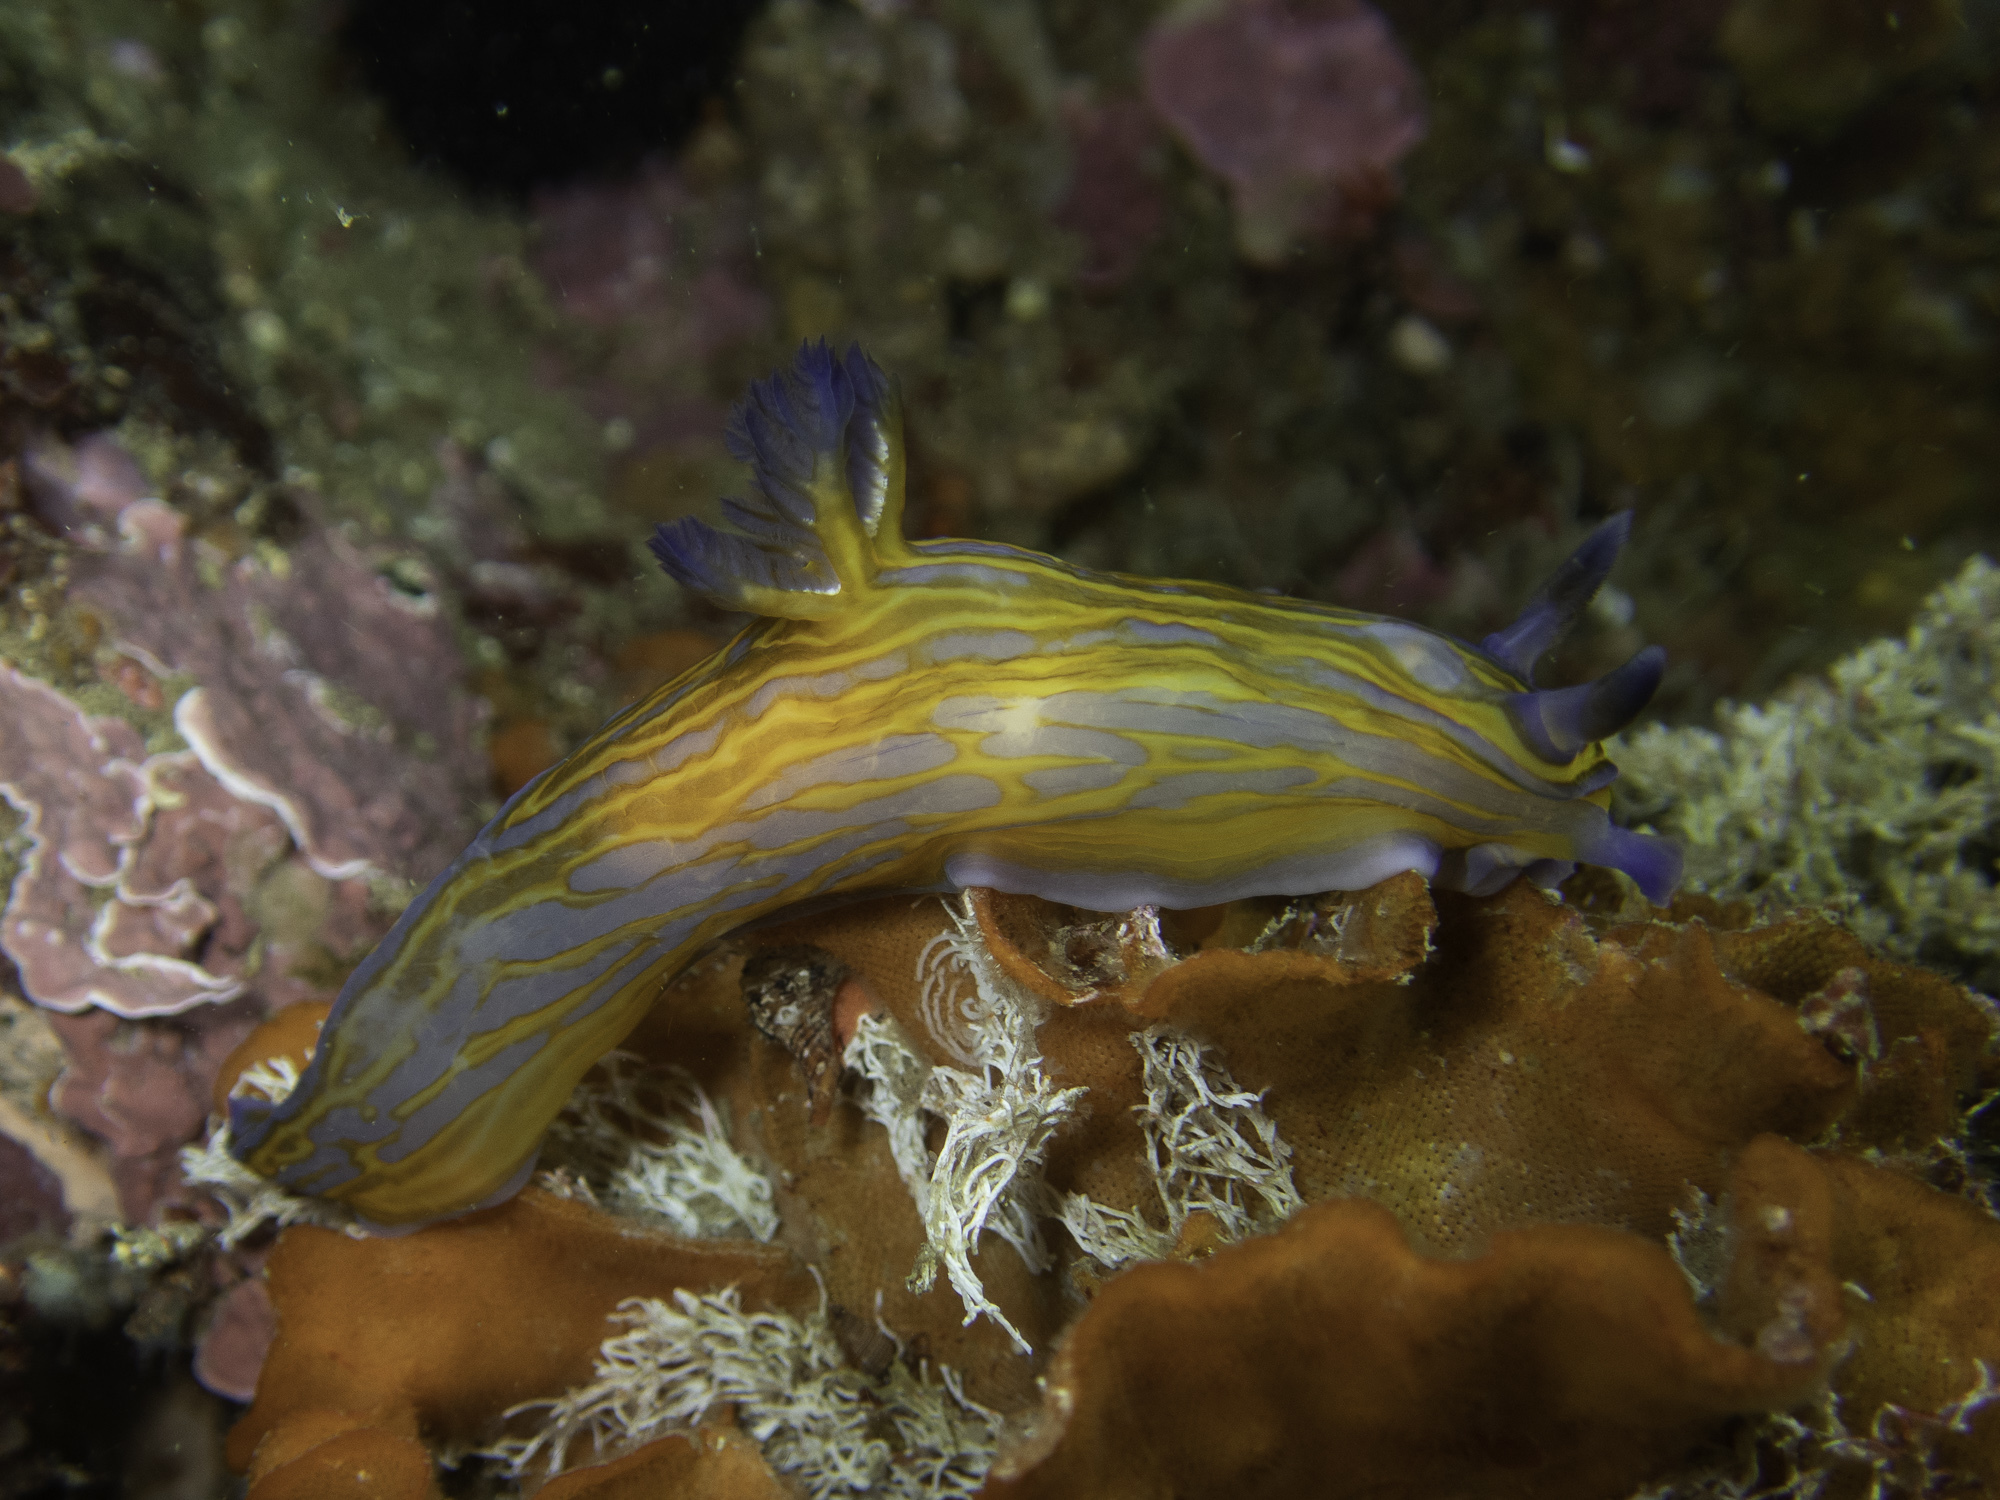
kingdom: Animalia
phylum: Mollusca
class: Gastropoda
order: Nudibranchia
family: Polyceridae
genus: Tyrannodoris
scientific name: Tyrannodoris europaea
